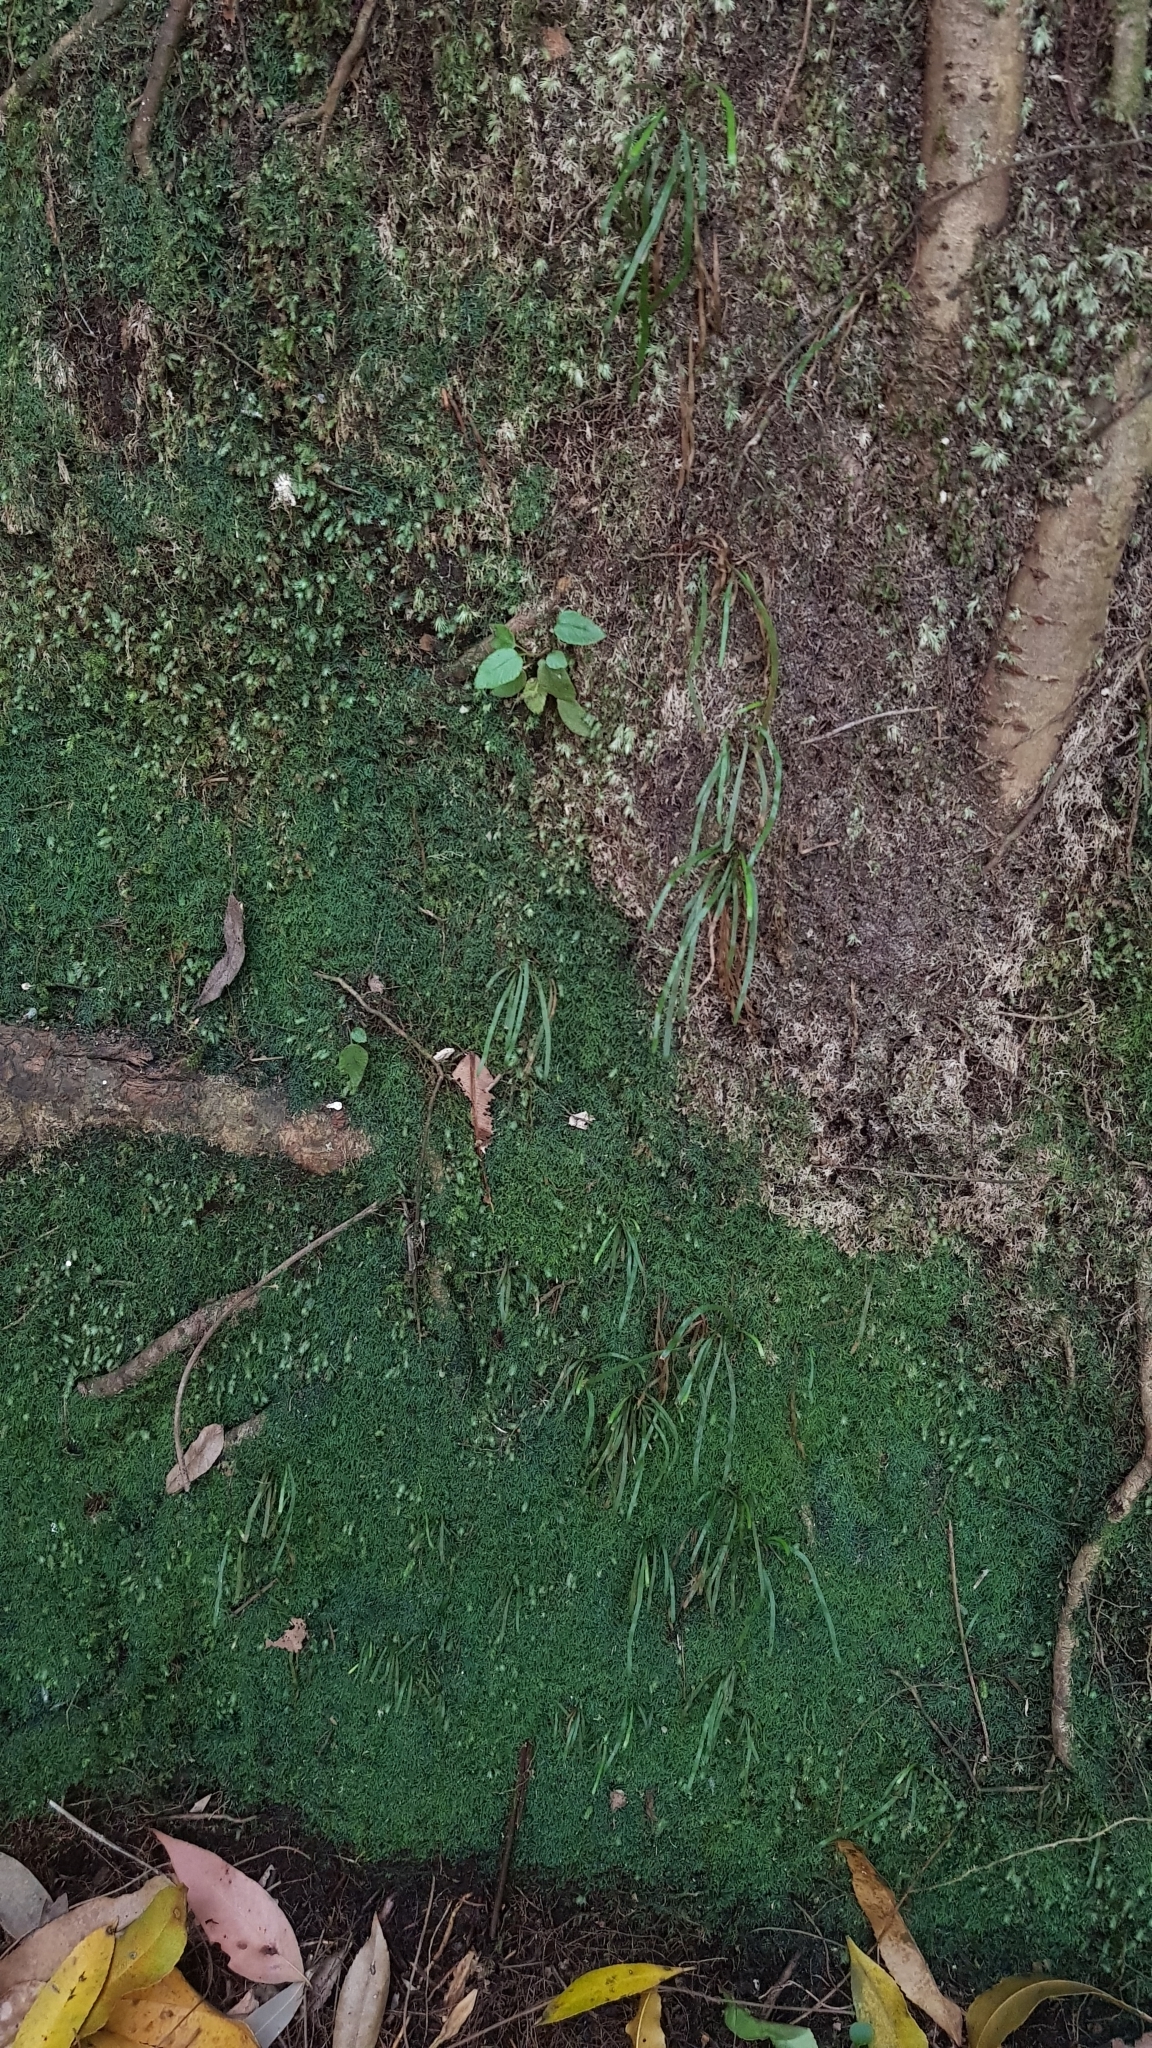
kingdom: Plantae
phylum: Tracheophyta
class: Polypodiopsida
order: Schizaeales
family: Schizaeaceae
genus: Microschizaea
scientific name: Microschizaea rupestris
